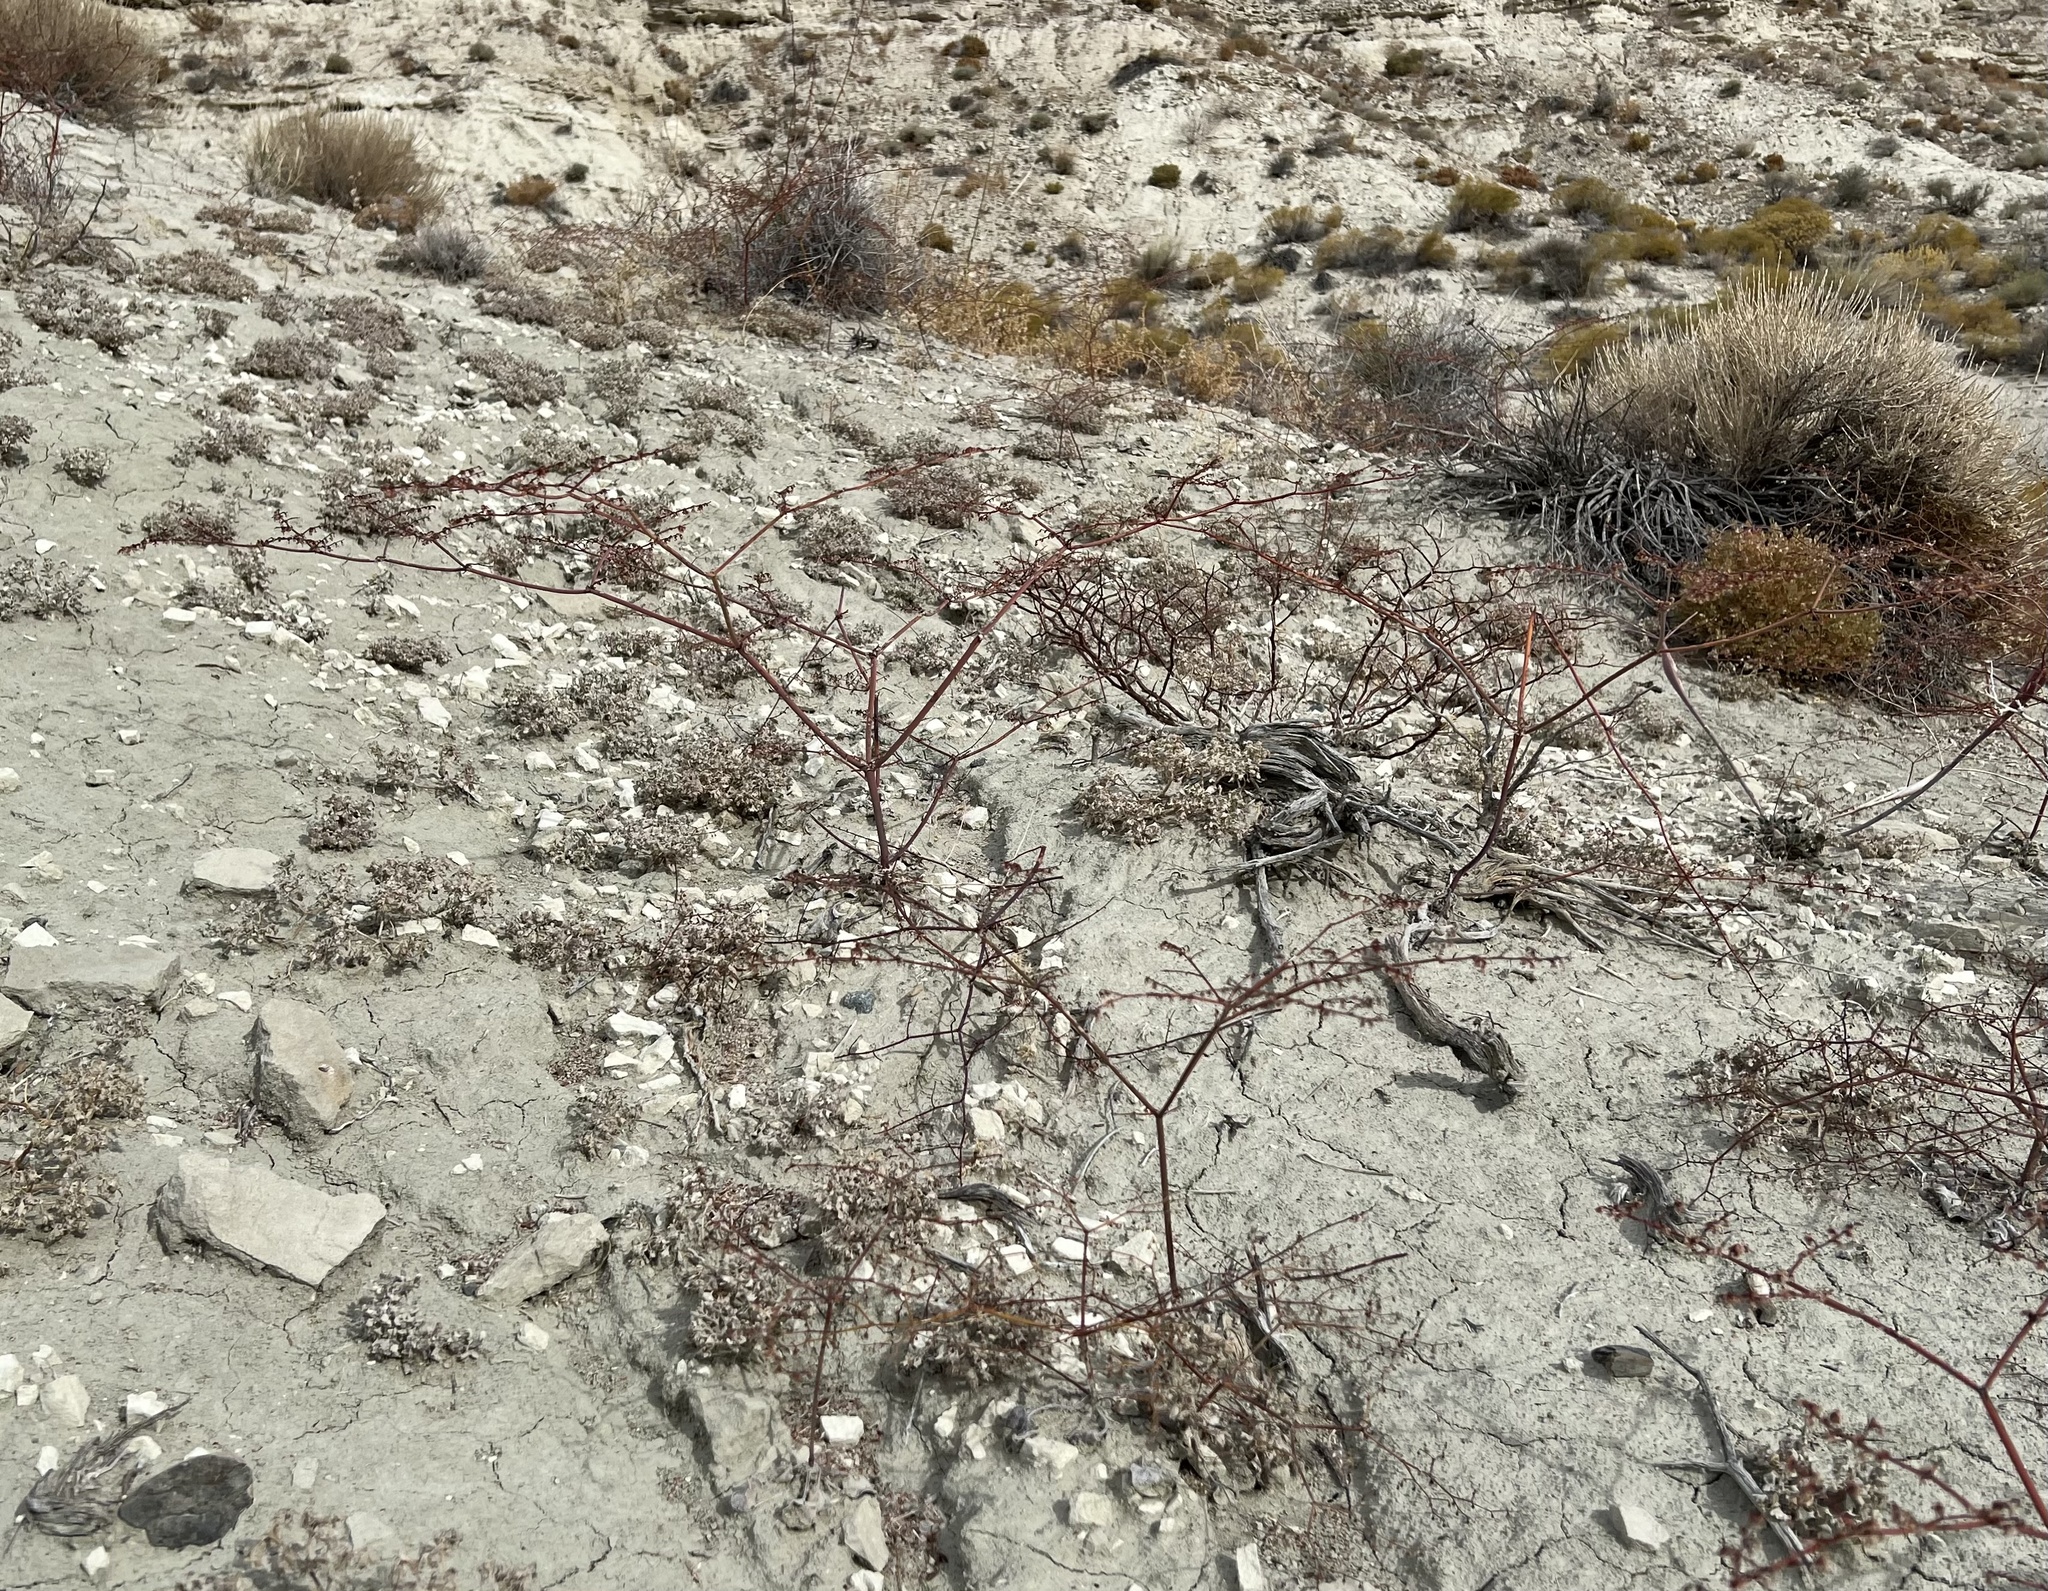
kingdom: Plantae
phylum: Tracheophyta
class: Magnoliopsida
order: Caryophyllales
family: Polygonaceae
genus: Eriogonum
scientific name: Eriogonum deflexum
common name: Skeleton-weed
